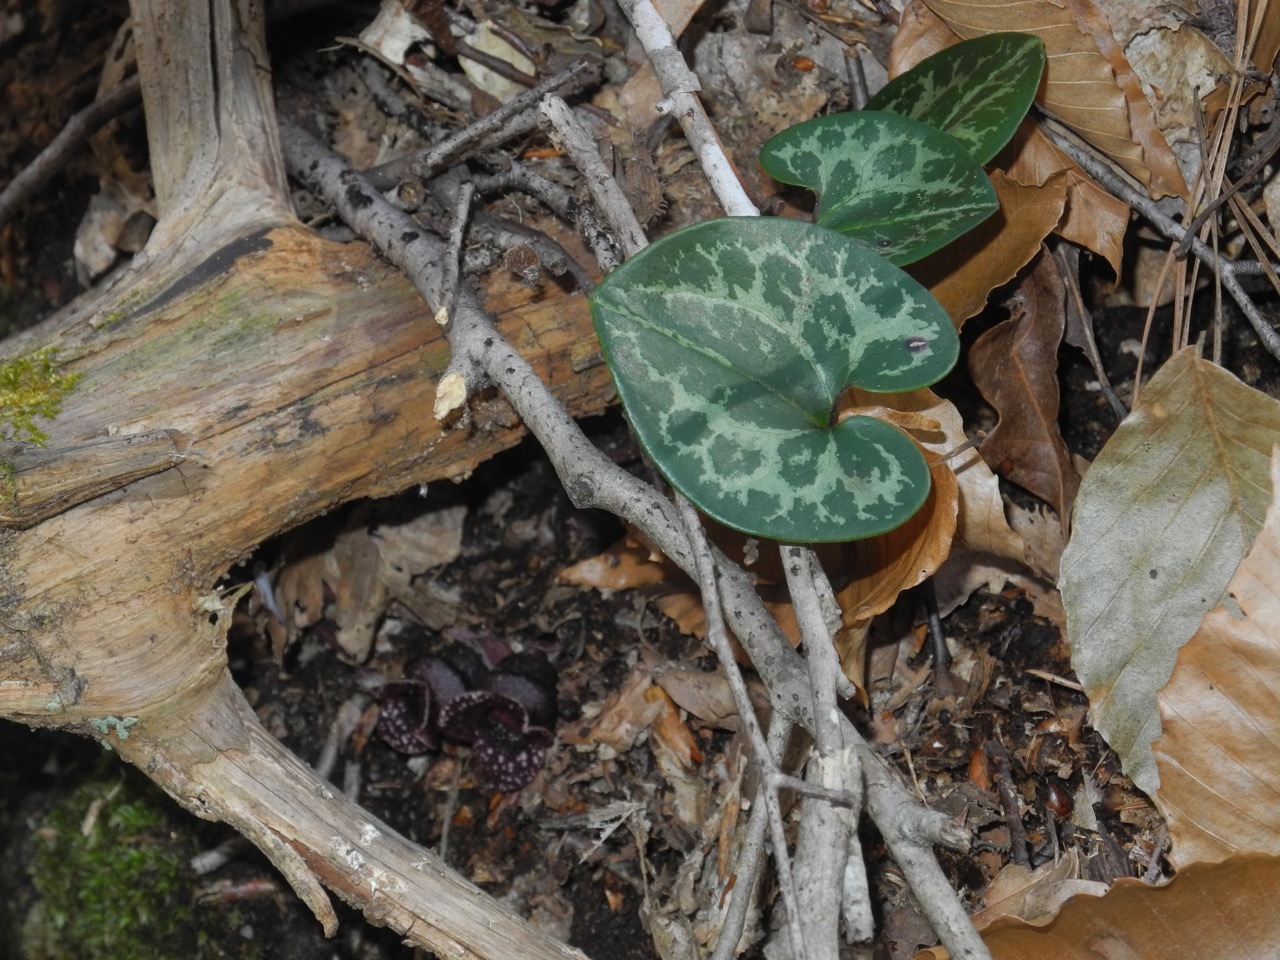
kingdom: Plantae
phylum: Tracheophyta
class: Magnoliopsida
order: Piperales
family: Aristolochiaceae
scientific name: Aristolochiaceae
